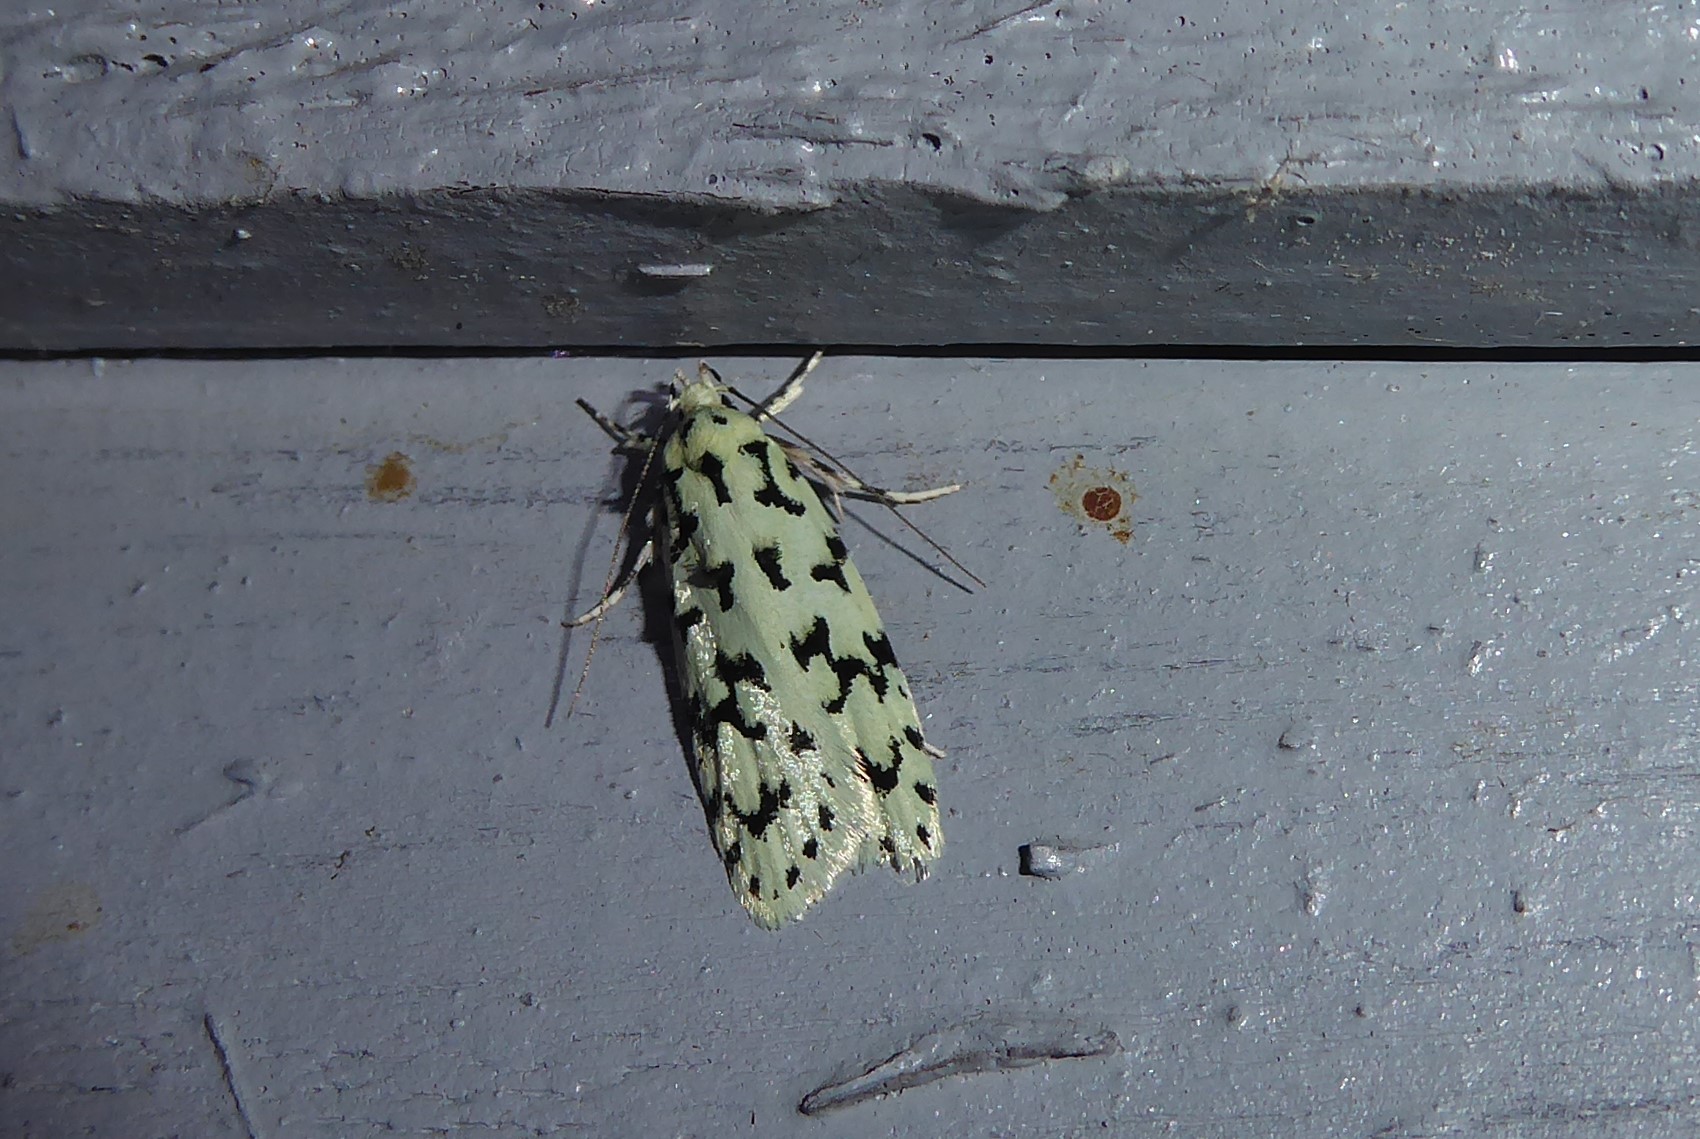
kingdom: Animalia
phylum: Arthropoda
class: Insecta
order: Lepidoptera
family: Oecophoridae
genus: Izatha
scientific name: Izatha huttoni
